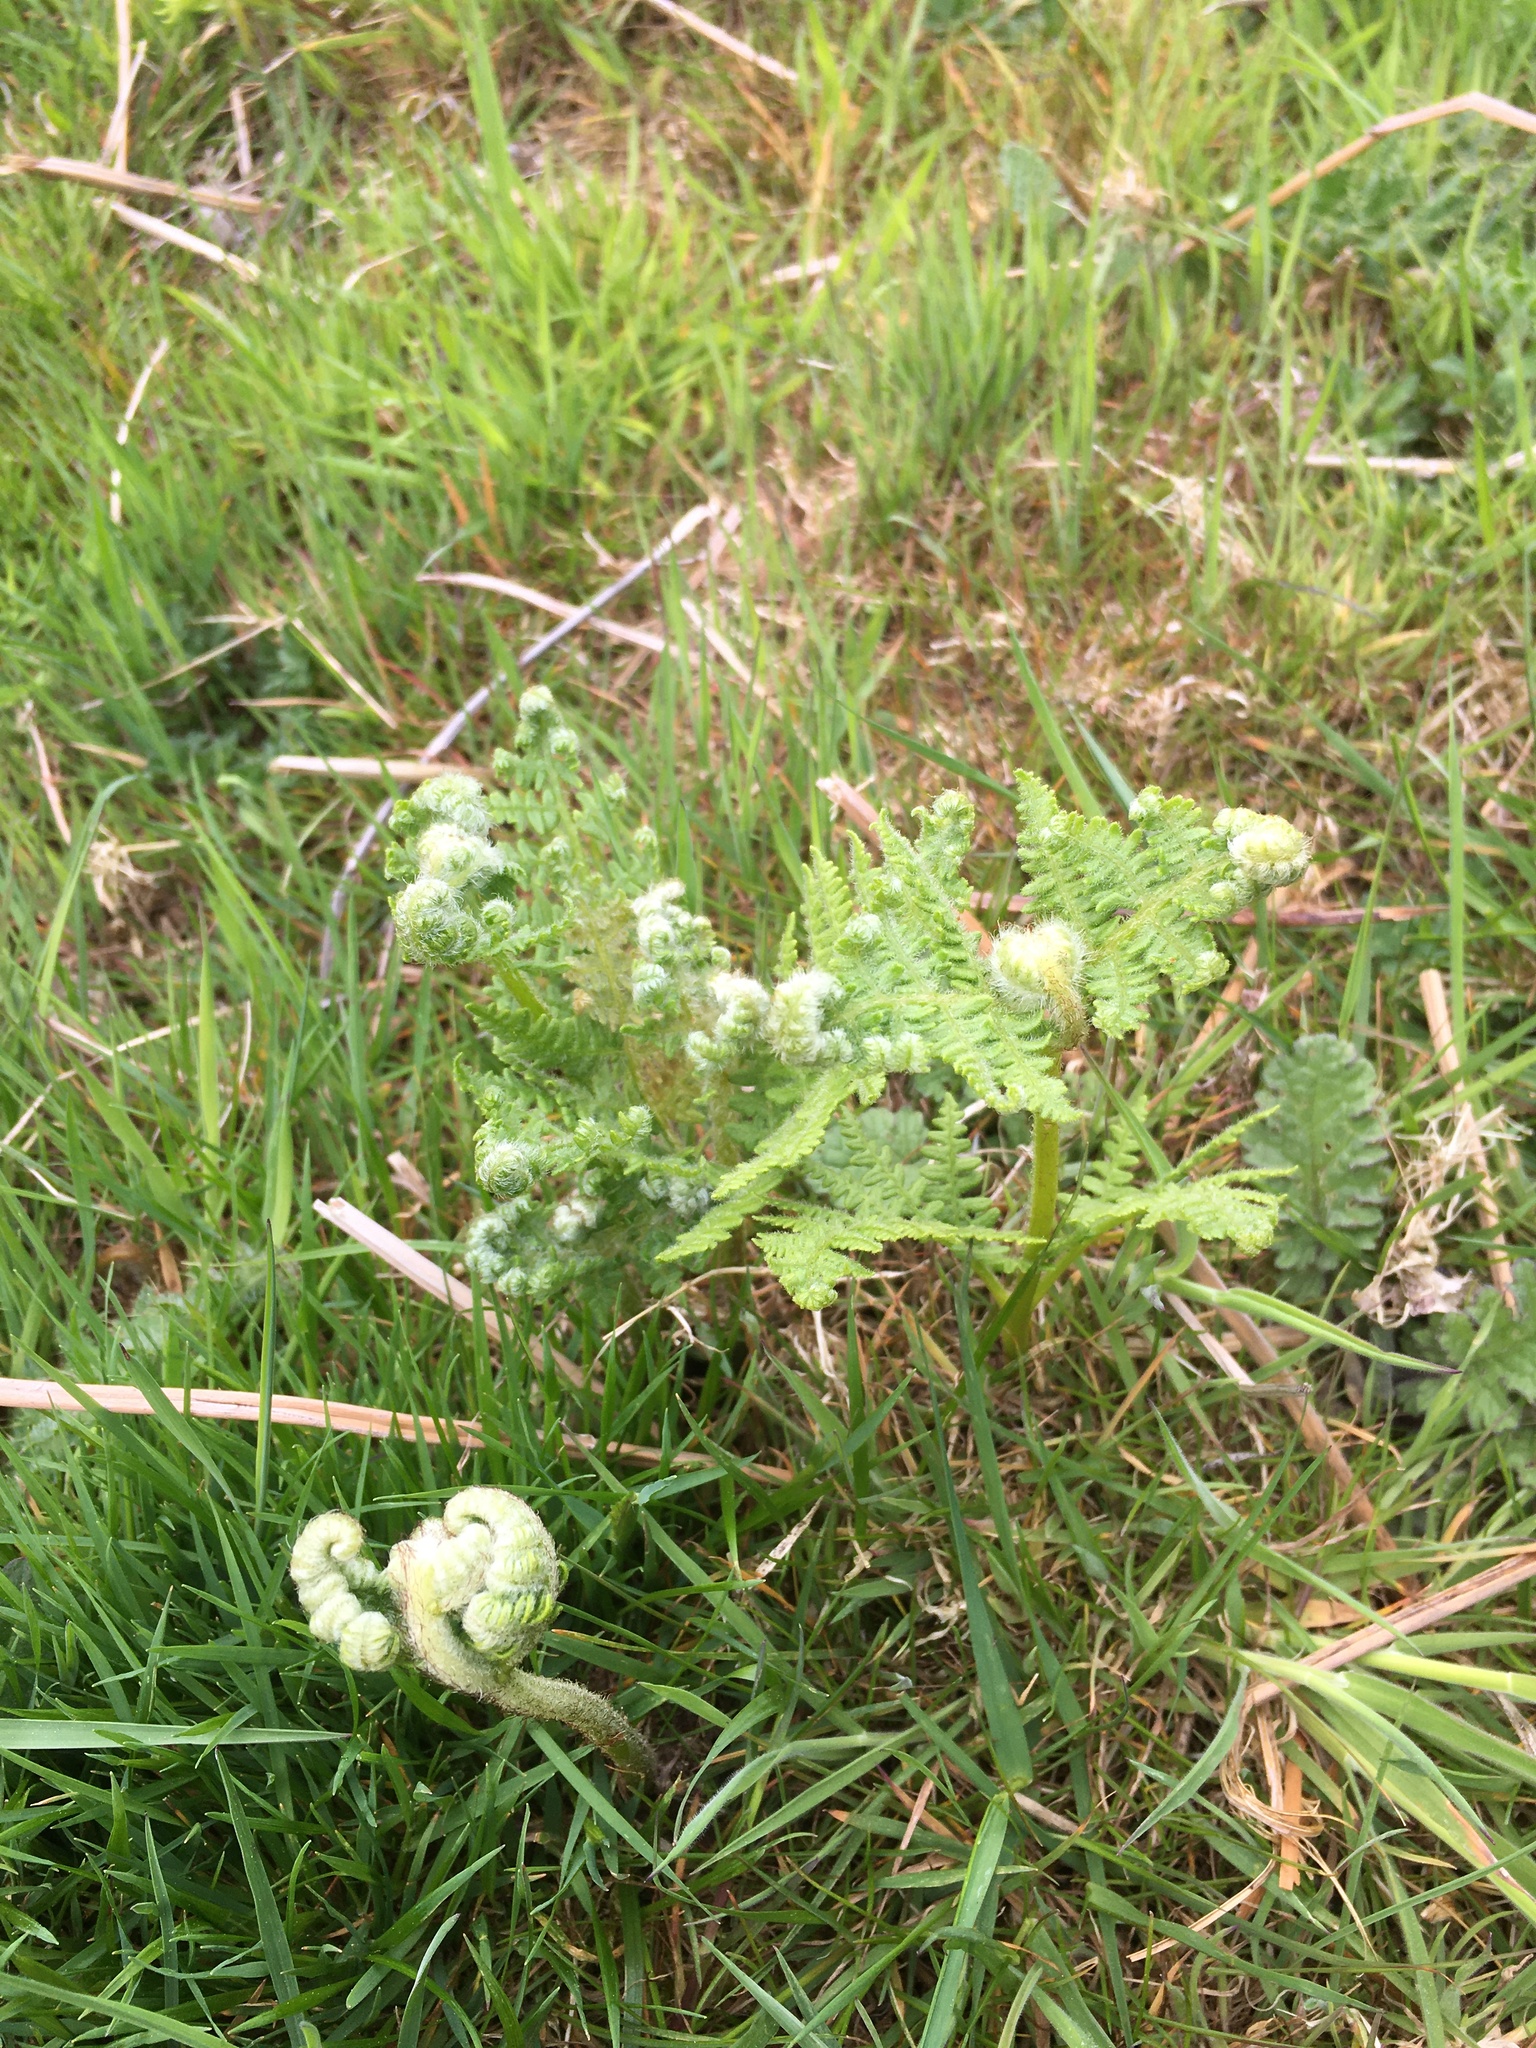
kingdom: Plantae
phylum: Tracheophyta
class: Polypodiopsida
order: Polypodiales
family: Dennstaedtiaceae
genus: Pteridium
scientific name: Pteridium aquilinum
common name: Bracken
